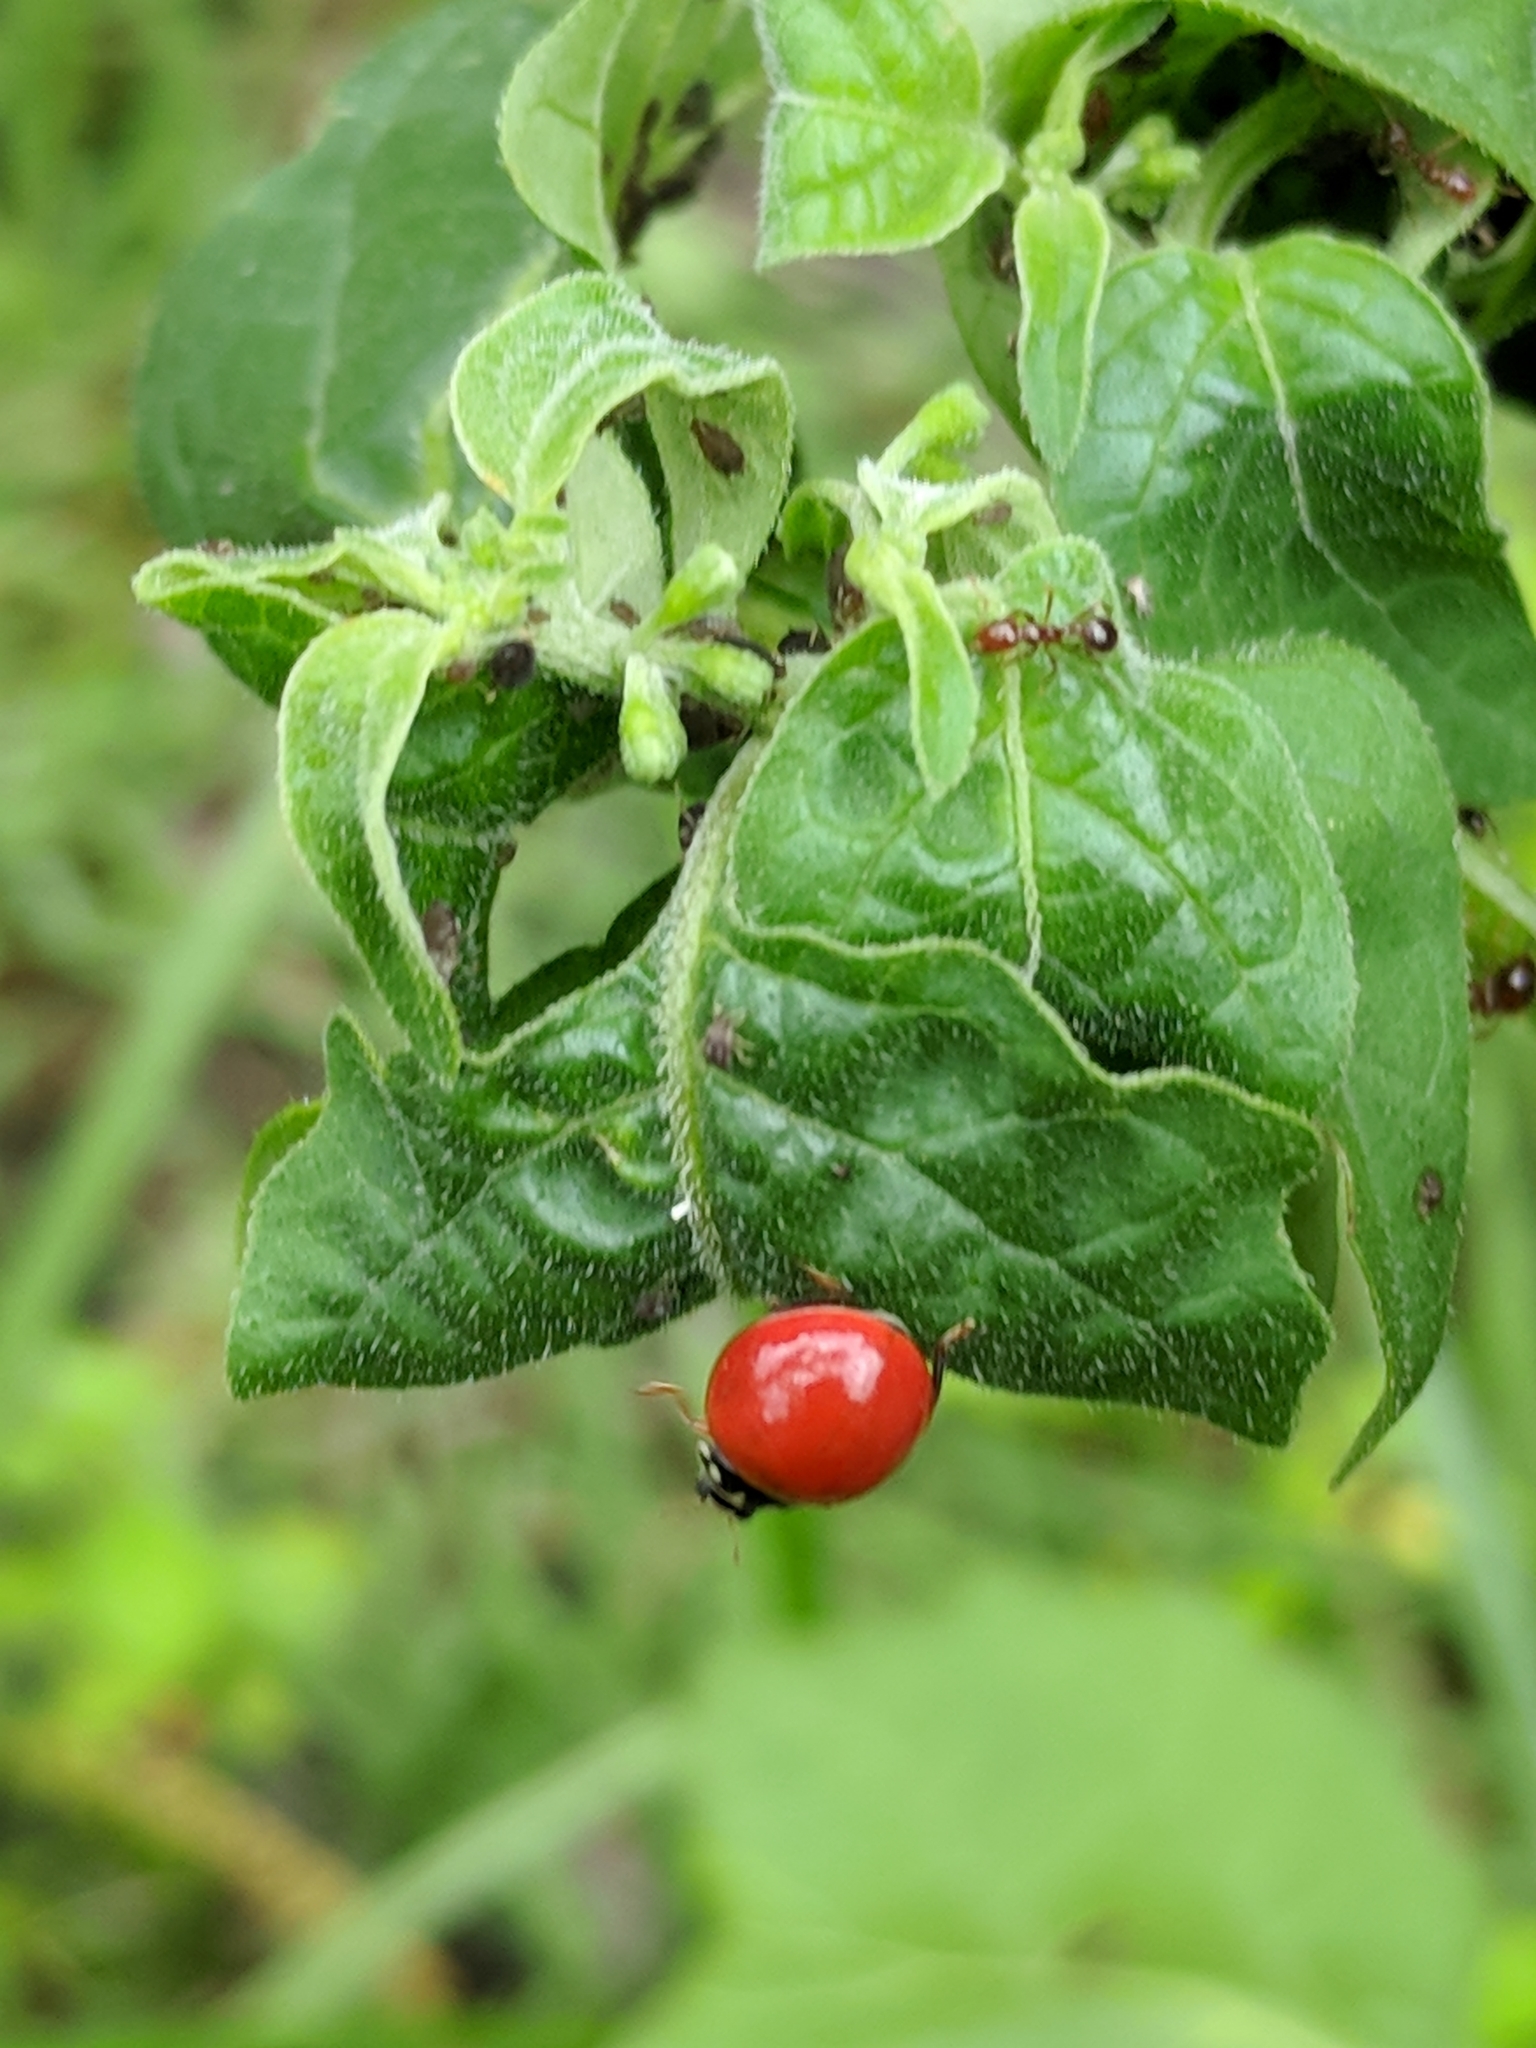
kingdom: Animalia
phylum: Arthropoda
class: Insecta
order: Coleoptera
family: Coccinellidae
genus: Cycloneda
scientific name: Cycloneda sanguinea
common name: Ladybird beetle
